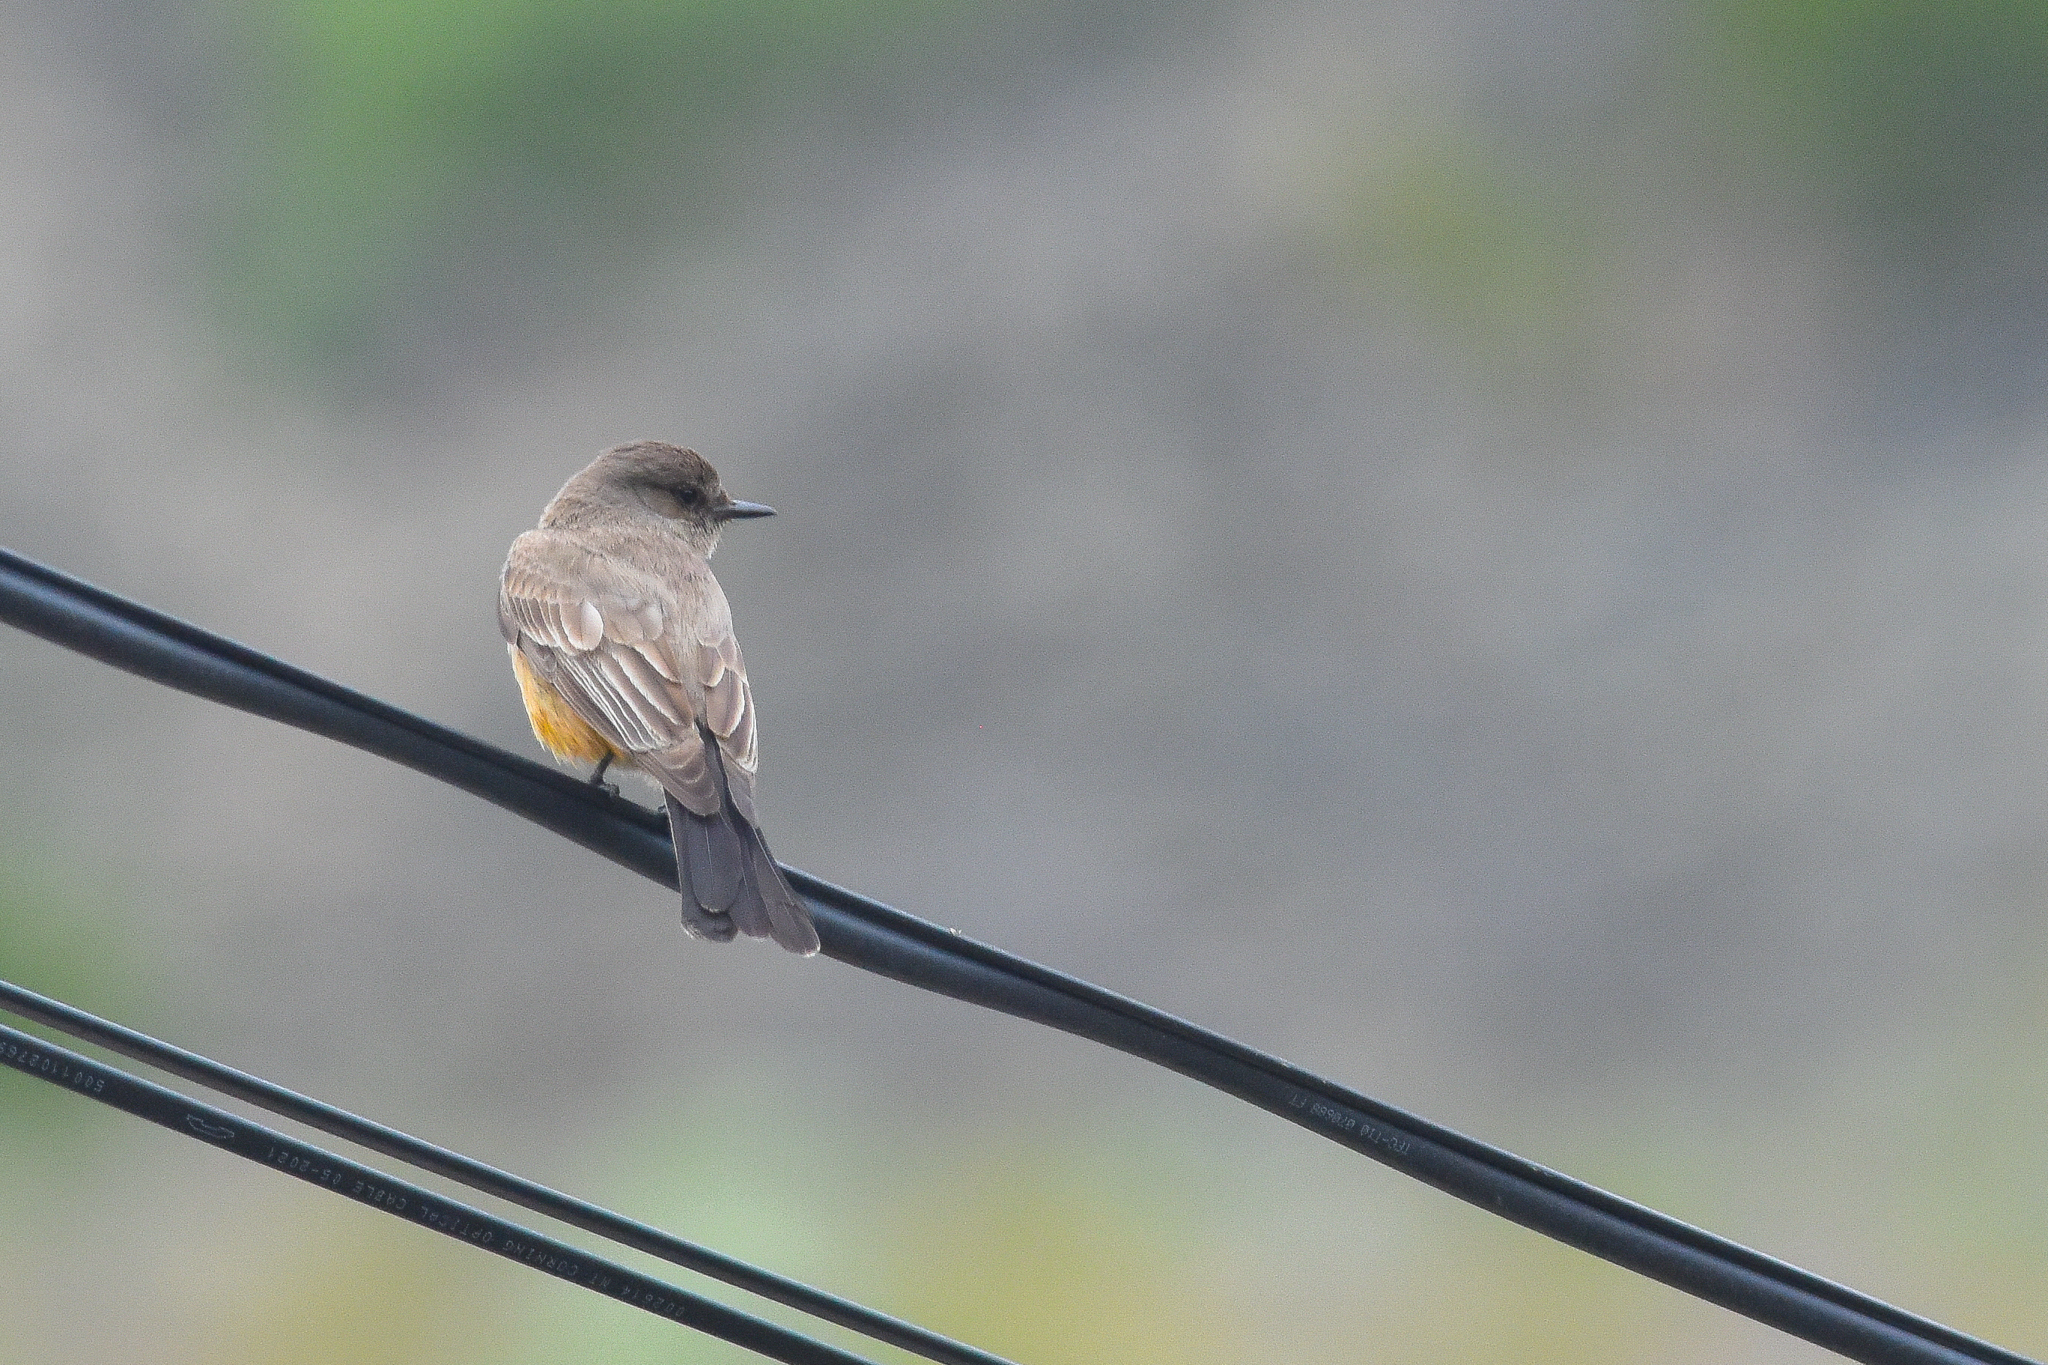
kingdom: Animalia
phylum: Chordata
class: Aves
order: Passeriformes
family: Tyrannidae
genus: Sayornis
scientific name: Sayornis saya
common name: Say's phoebe
